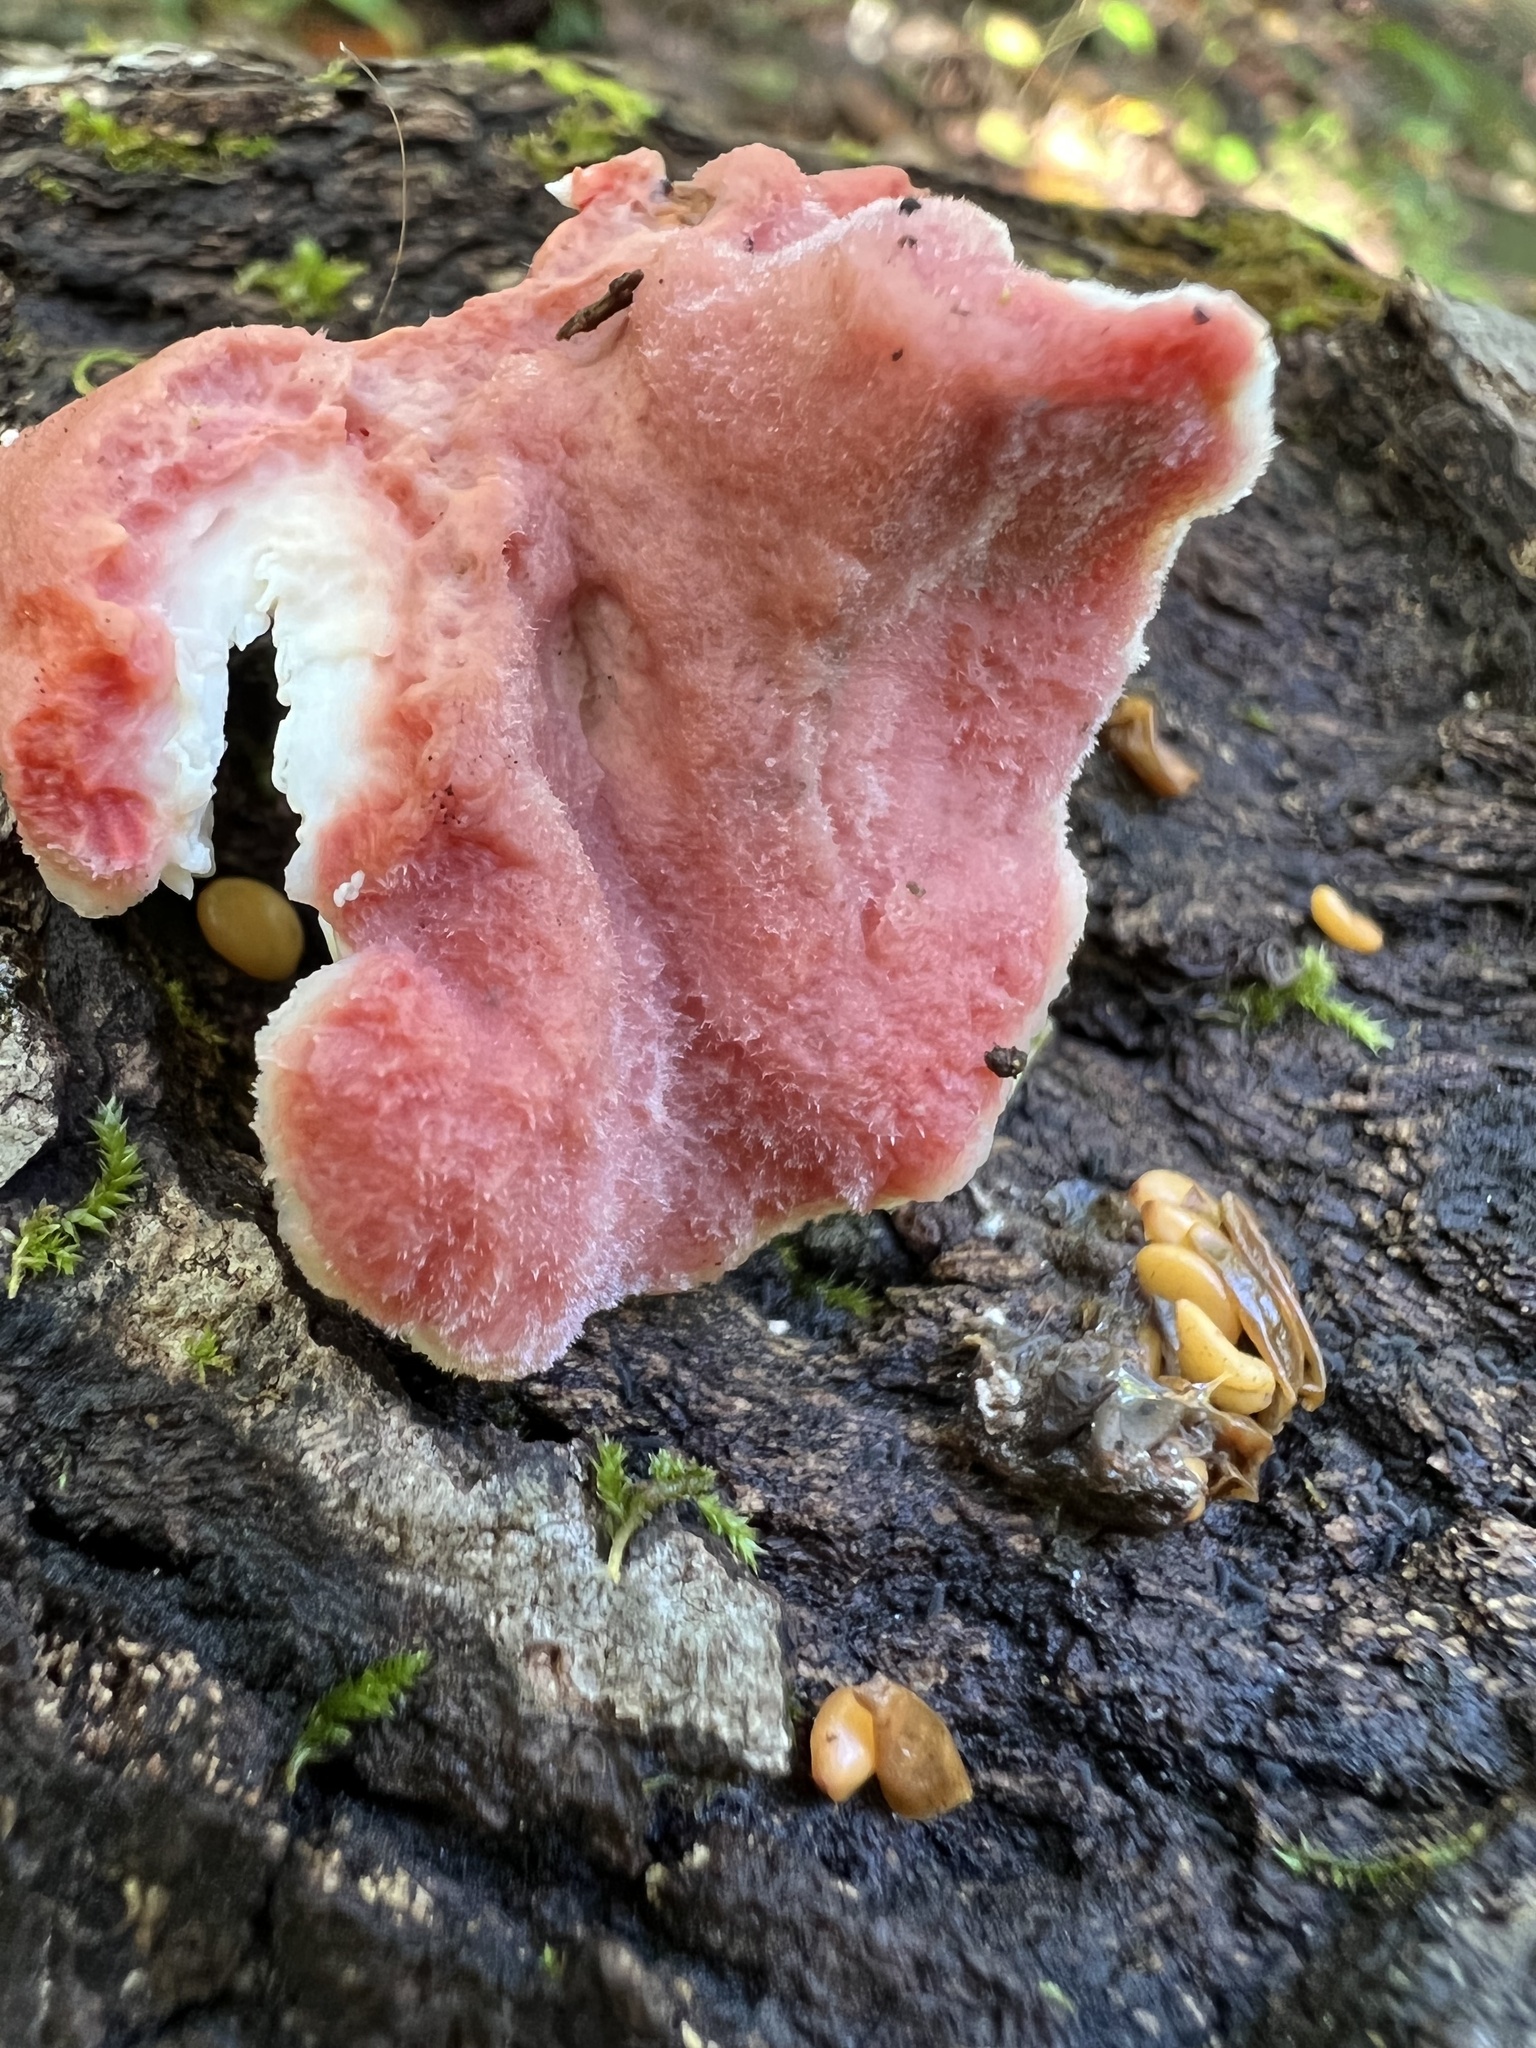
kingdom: Fungi
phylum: Basidiomycota
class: Agaricomycetes
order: Polyporales
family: Irpicaceae
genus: Byssomerulius
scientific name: Byssomerulius incarnatus
